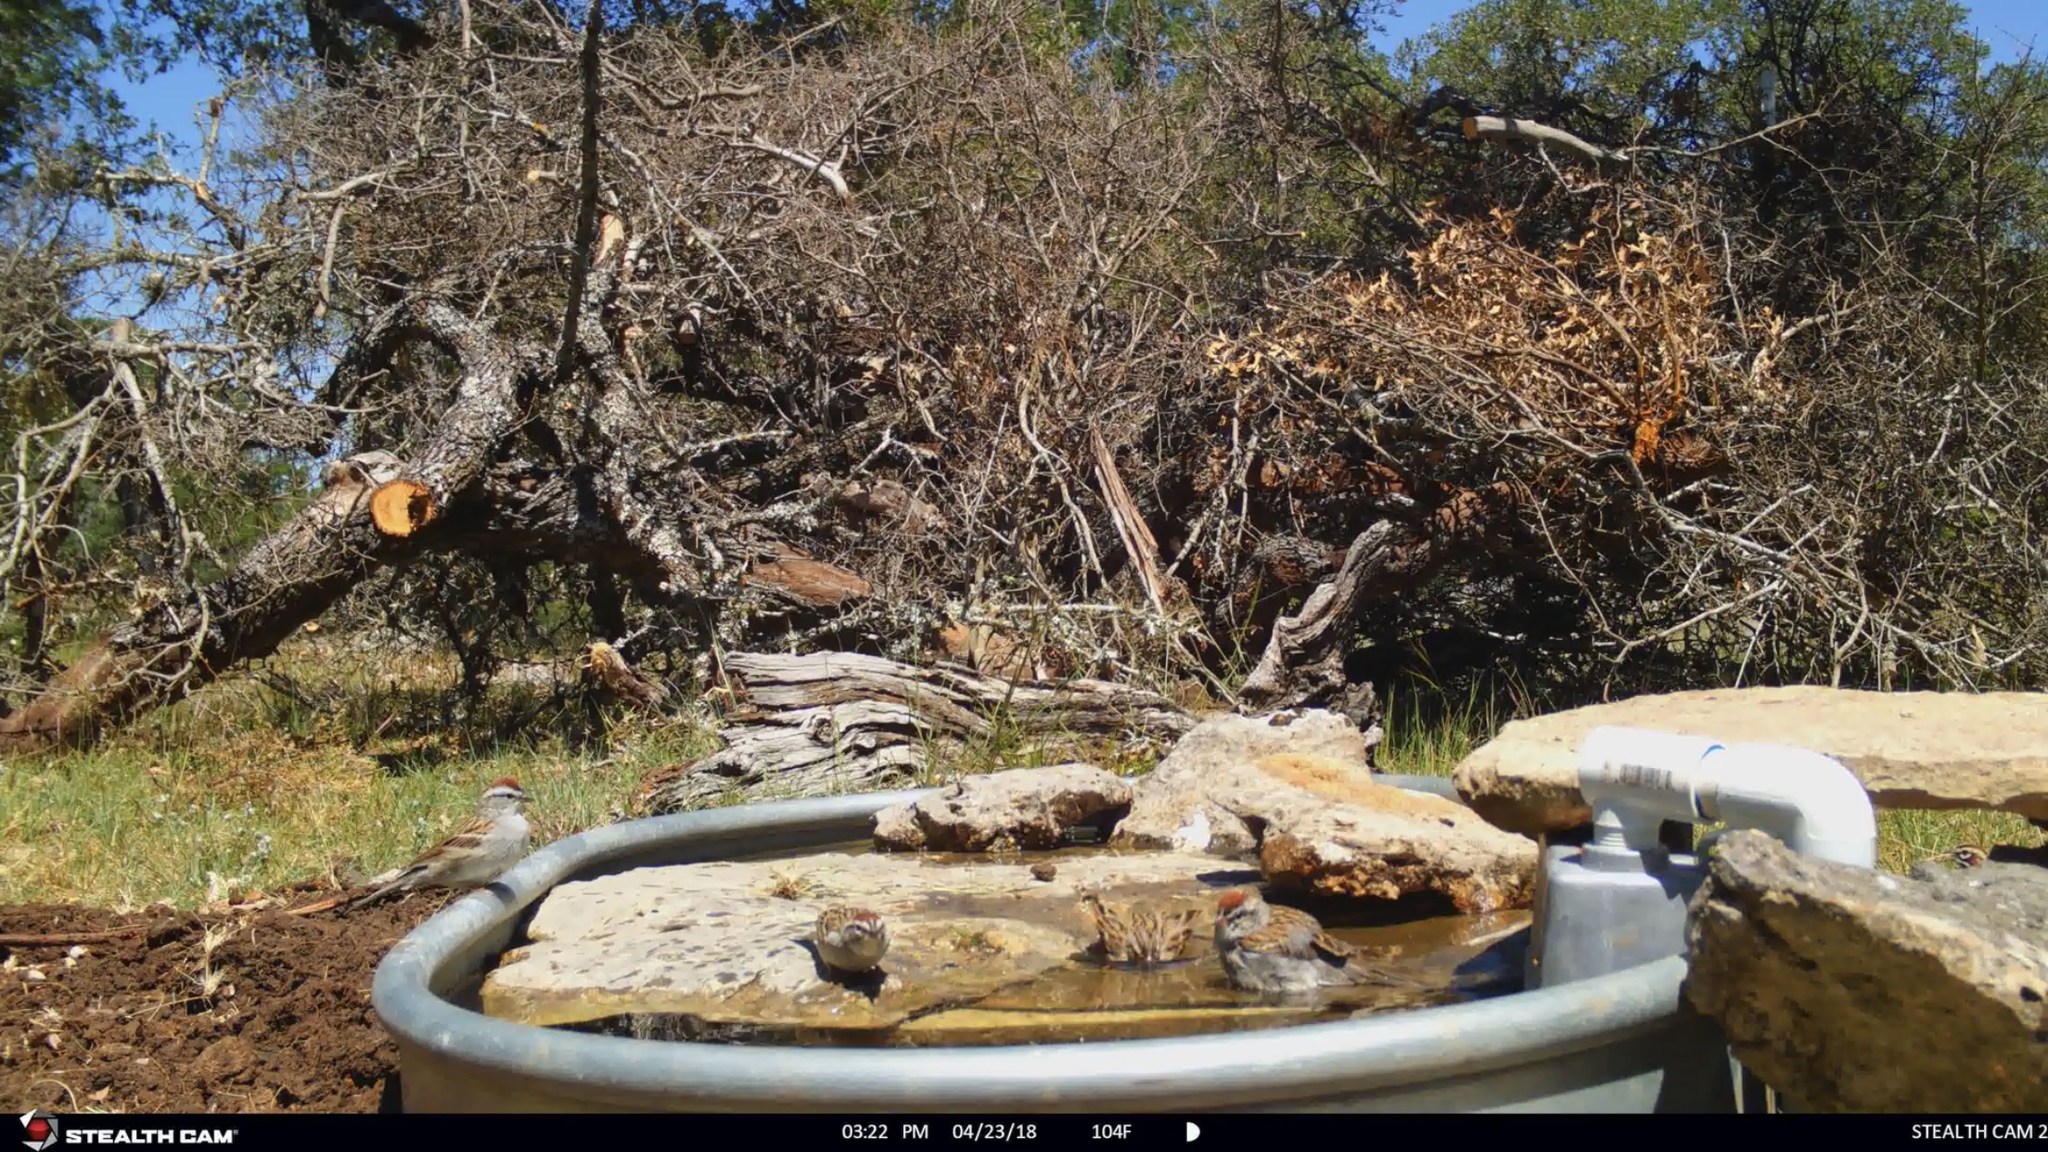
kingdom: Animalia
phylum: Chordata
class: Aves
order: Passeriformes
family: Passerellidae
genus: Spizella
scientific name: Spizella passerina
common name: Chipping sparrow
